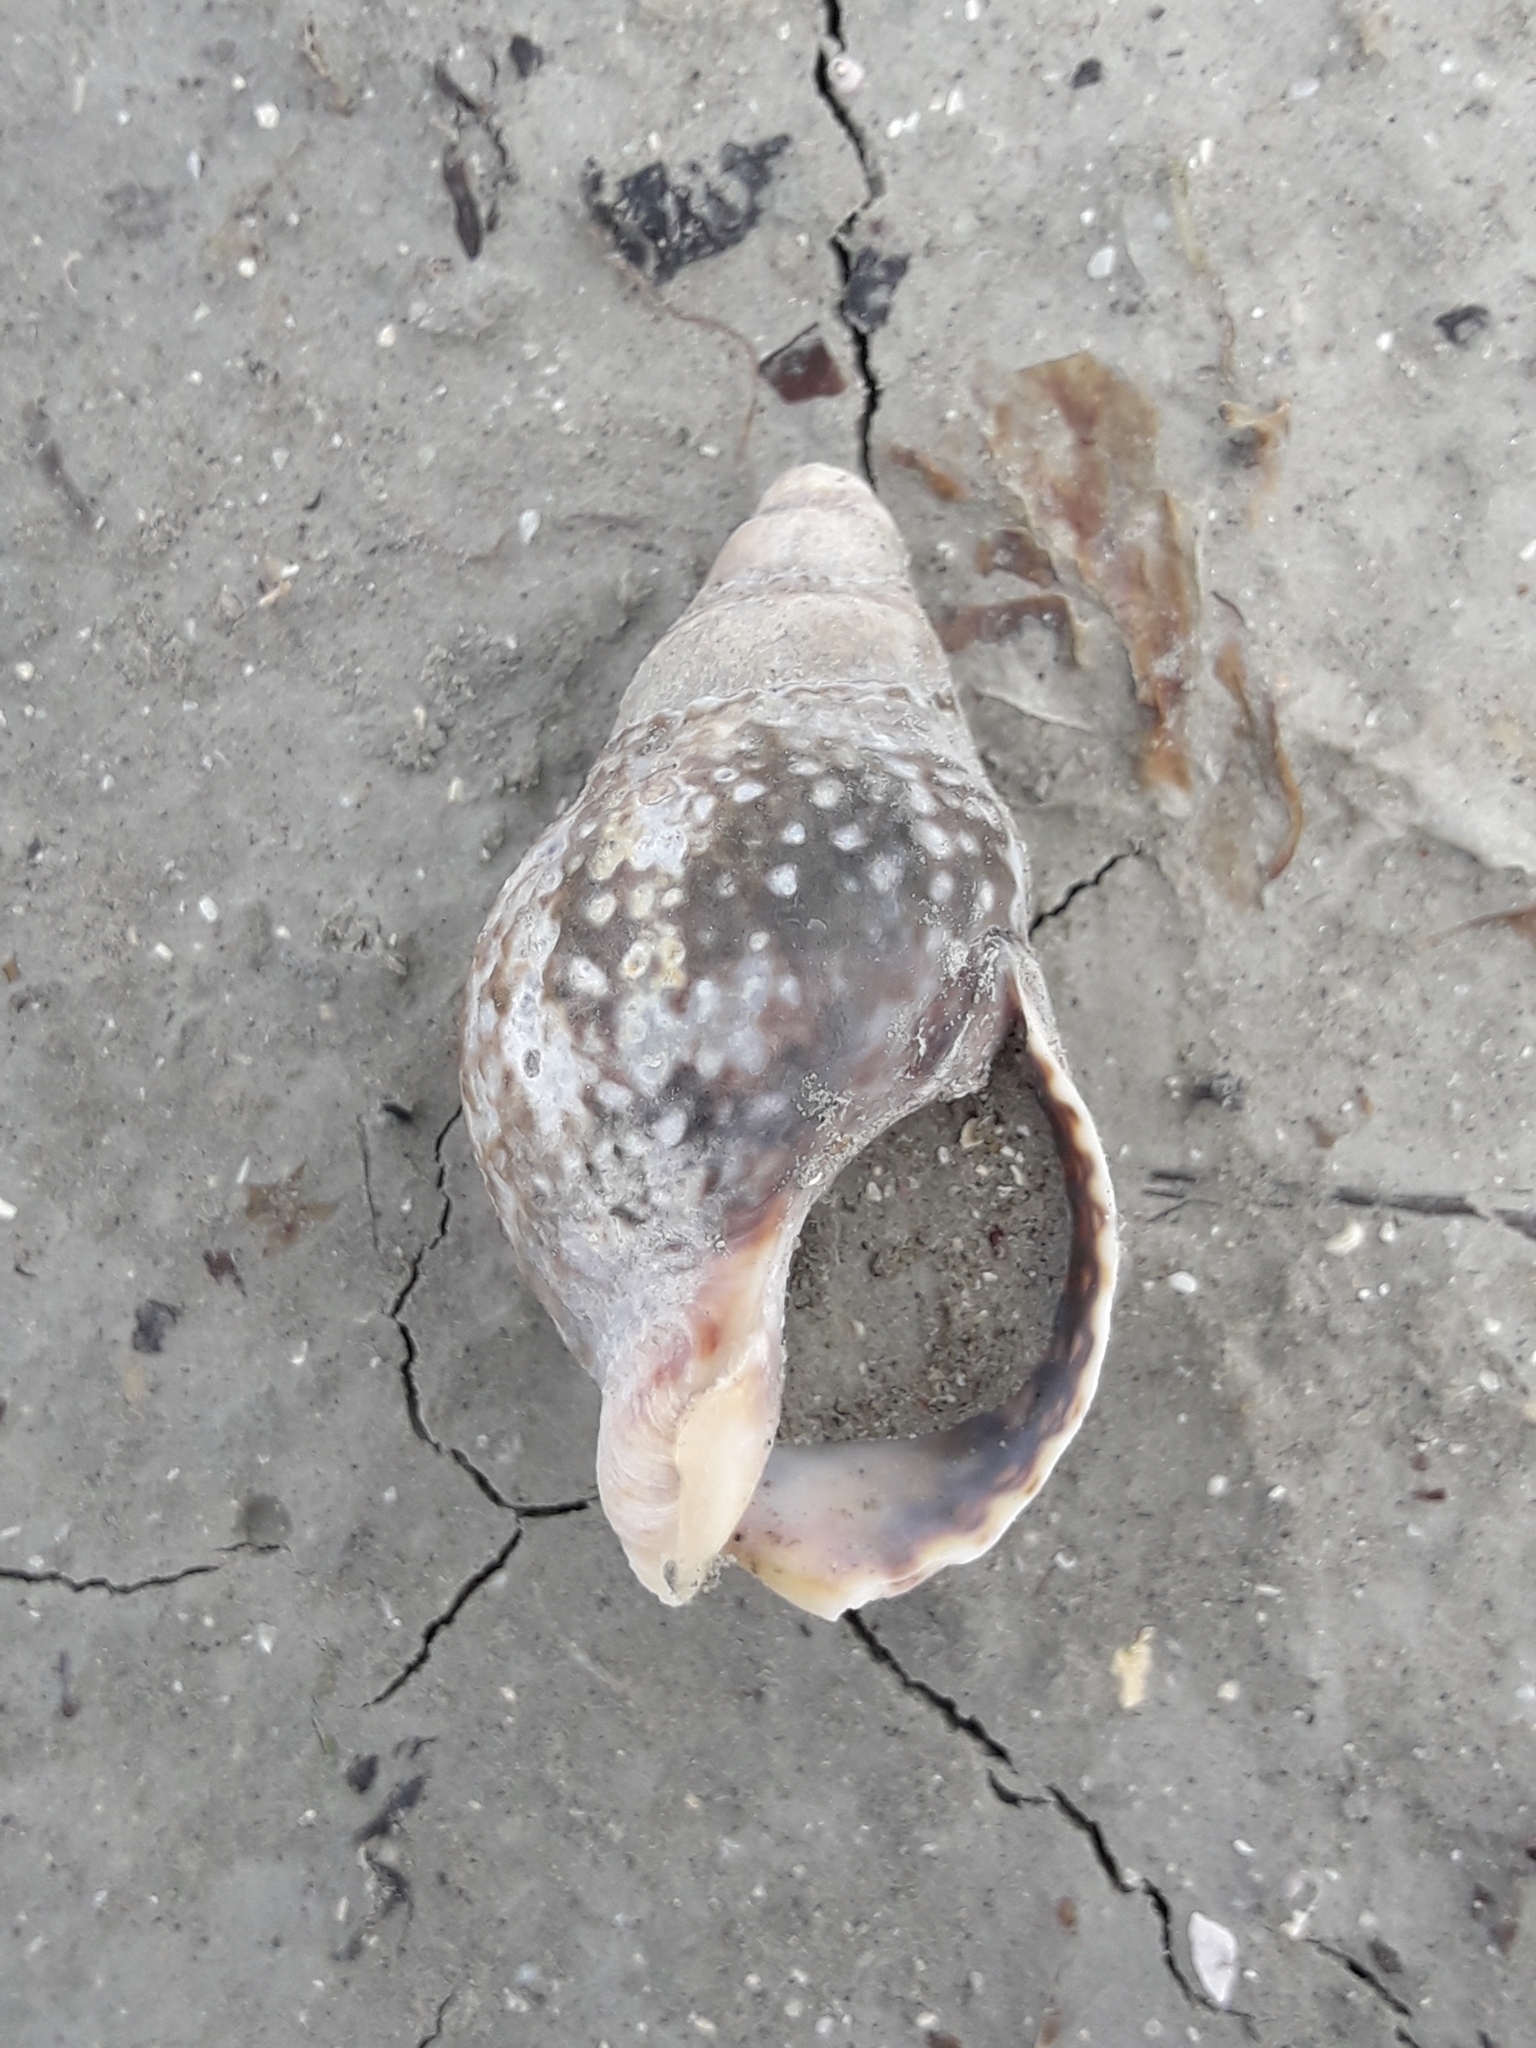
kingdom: Animalia
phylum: Mollusca
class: Gastropoda
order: Neogastropoda
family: Cominellidae
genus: Cominella
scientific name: Cominella maculosa
